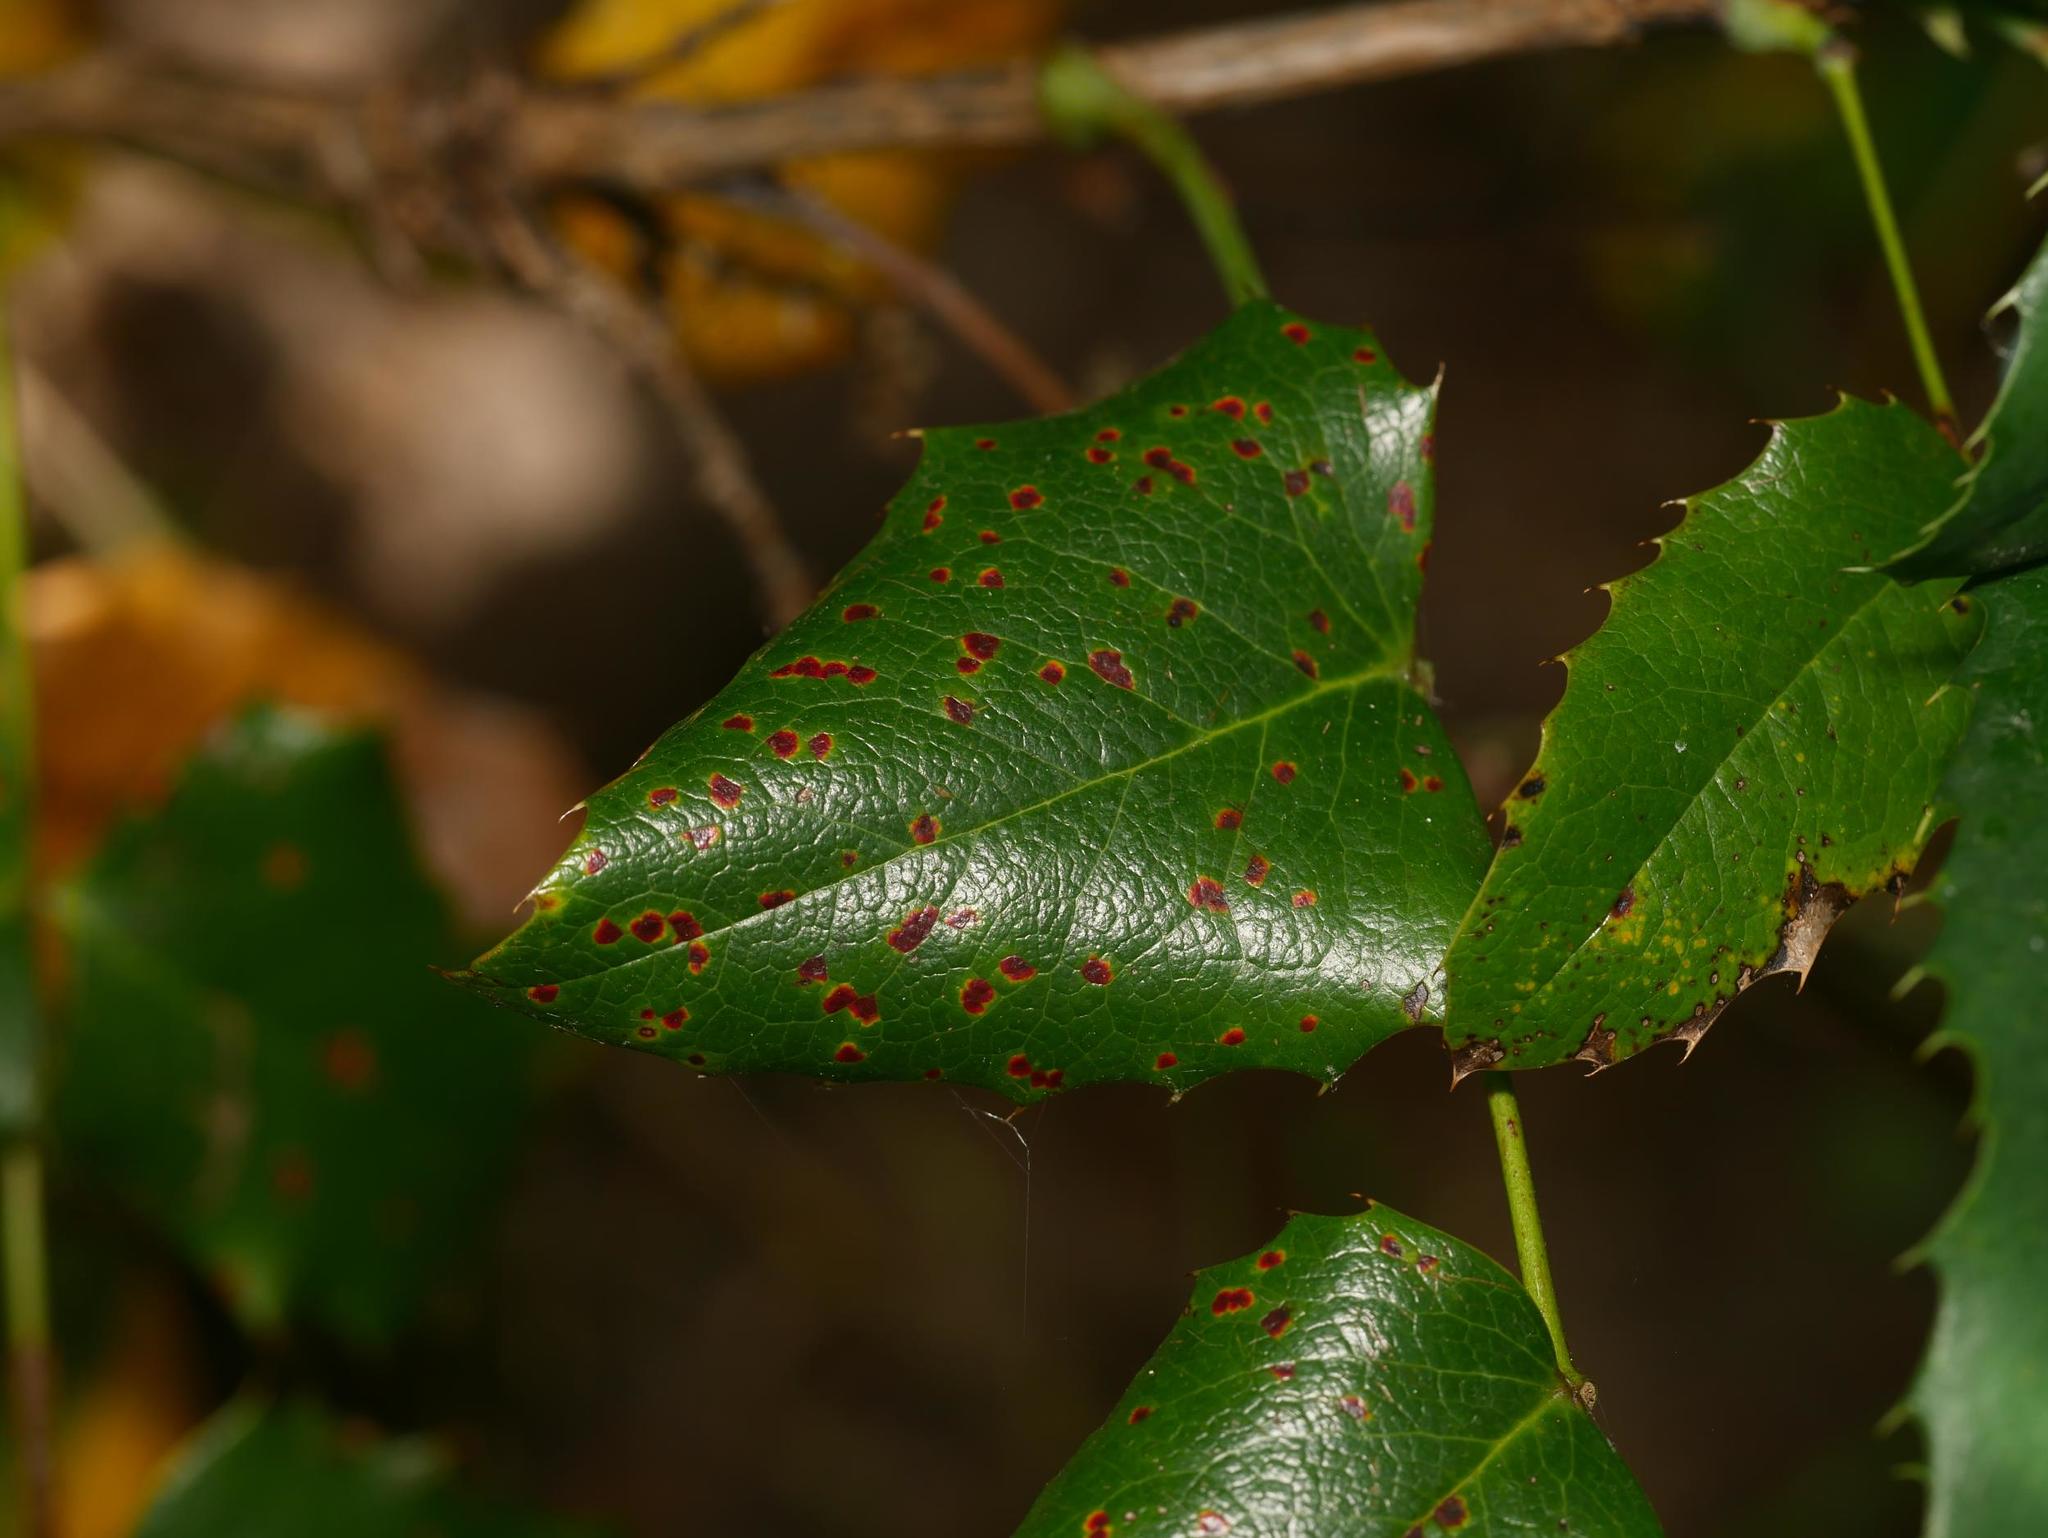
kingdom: Plantae
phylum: Tracheophyta
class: Magnoliopsida
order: Ranunculales
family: Berberidaceae
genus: Mahonia
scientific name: Mahonia aquifolium
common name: Oregon-grape
